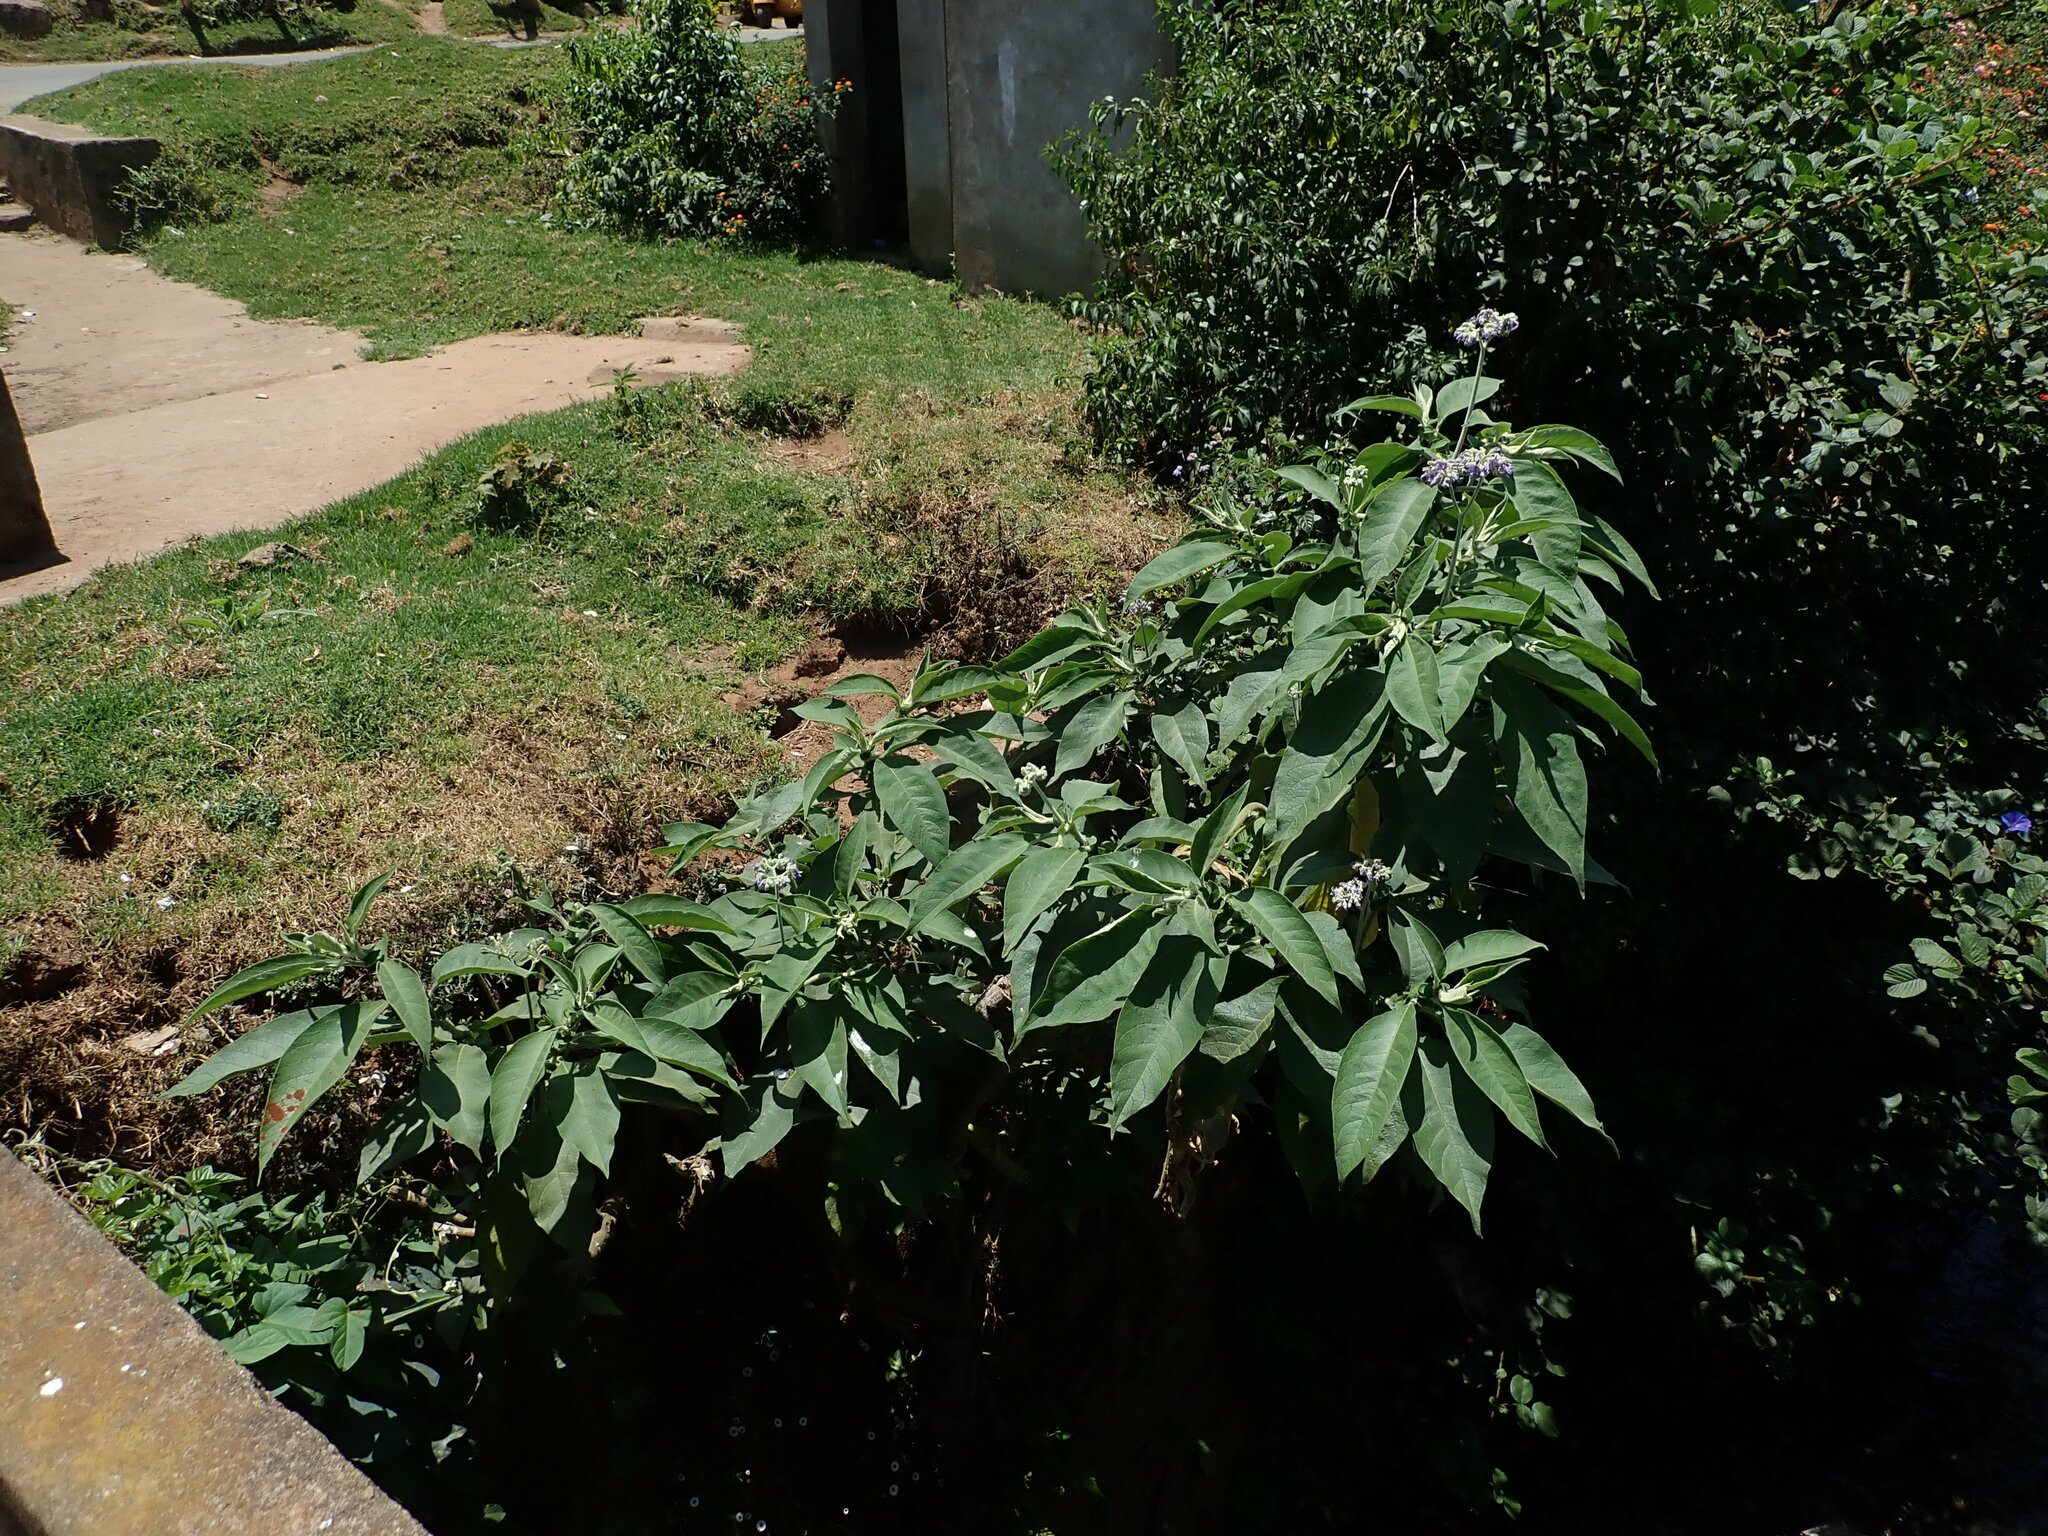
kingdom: Plantae
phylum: Tracheophyta
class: Magnoliopsida
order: Solanales
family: Solanaceae
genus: Solanum
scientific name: Solanum mauritianum
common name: Earleaf nightshade
